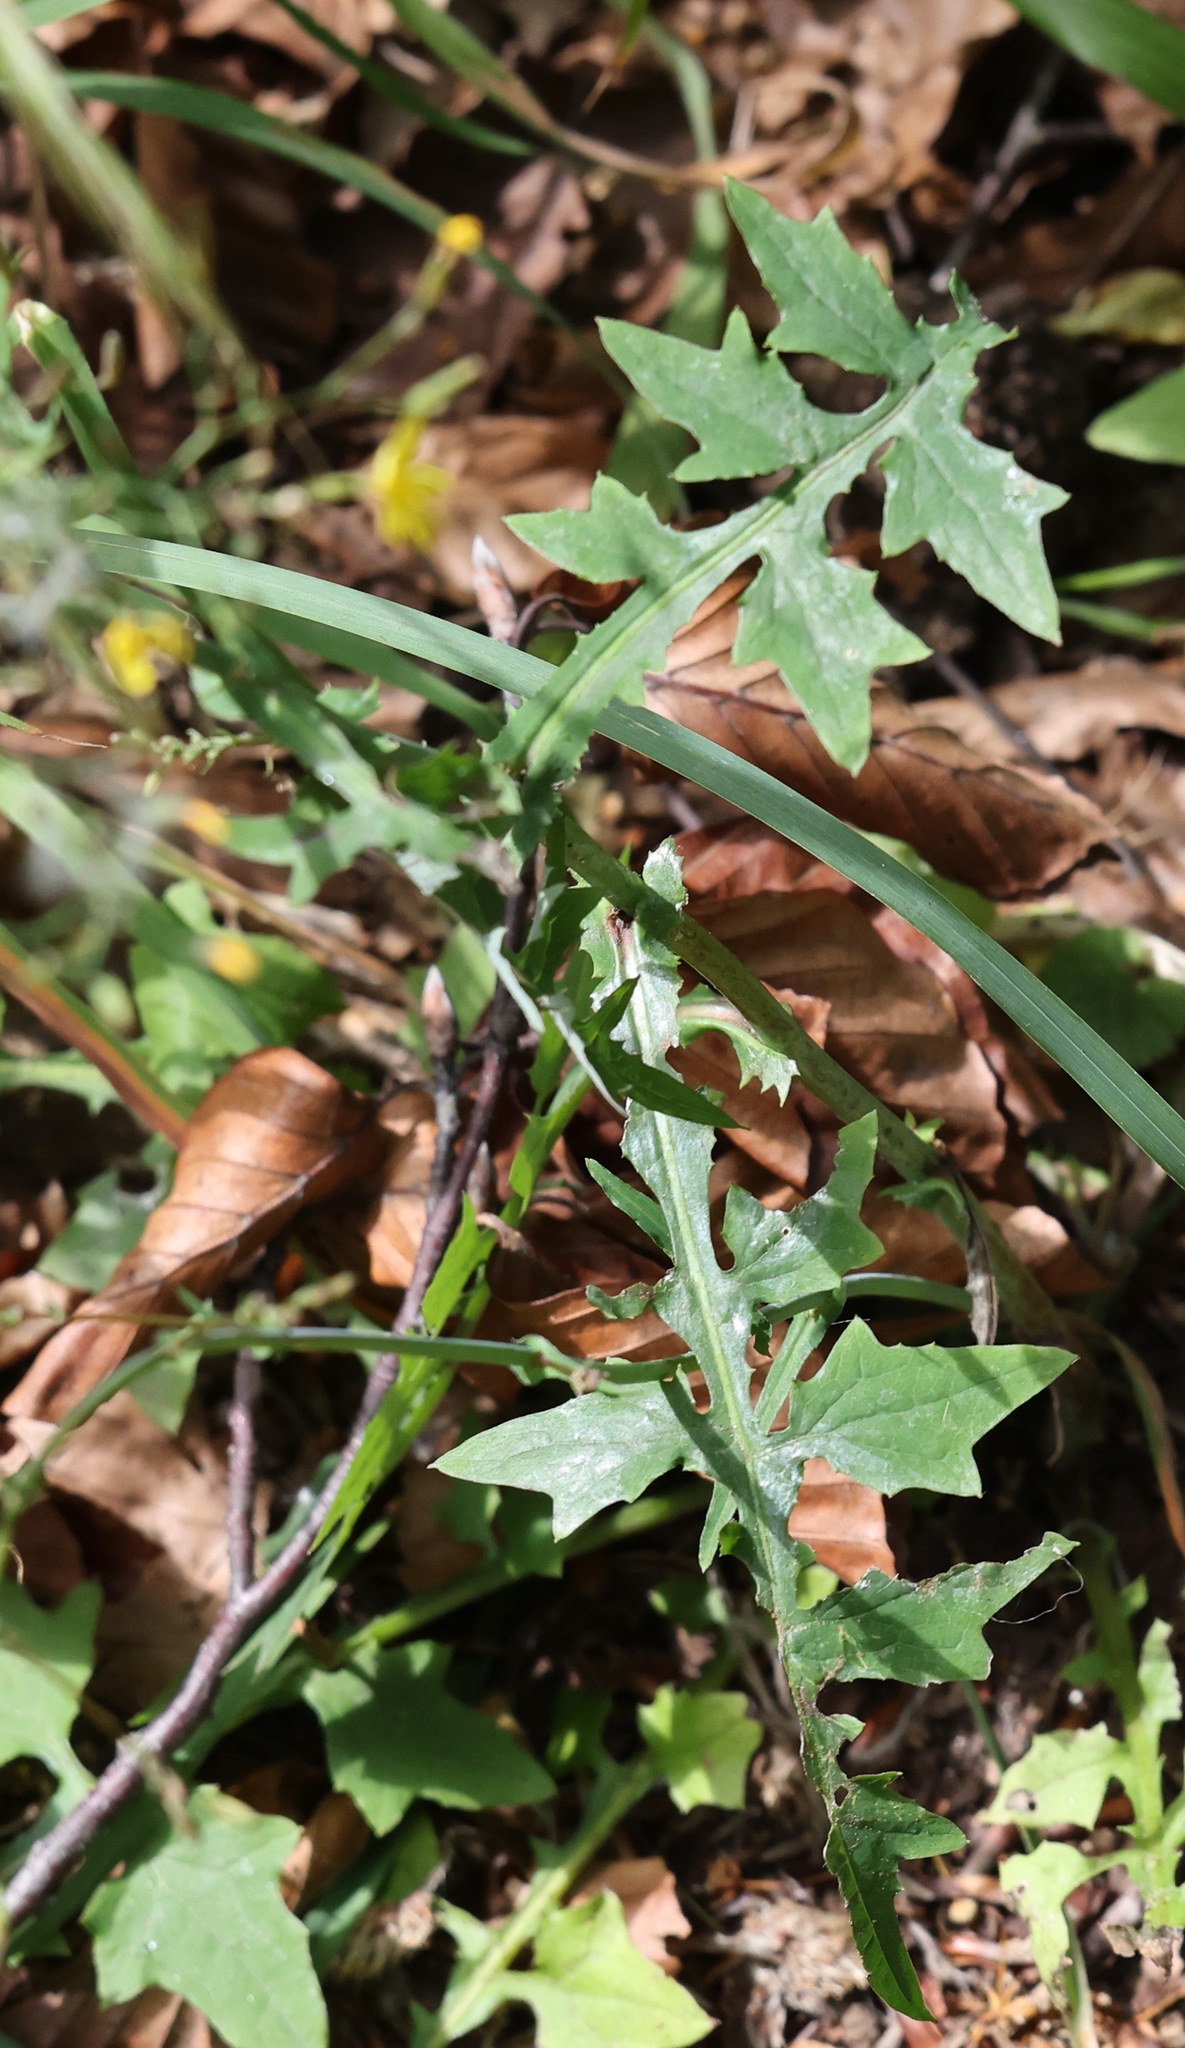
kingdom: Plantae
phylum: Tracheophyta
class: Magnoliopsida
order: Asterales
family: Asteraceae
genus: Mycelis
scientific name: Mycelis muralis
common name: Wall lettuce
